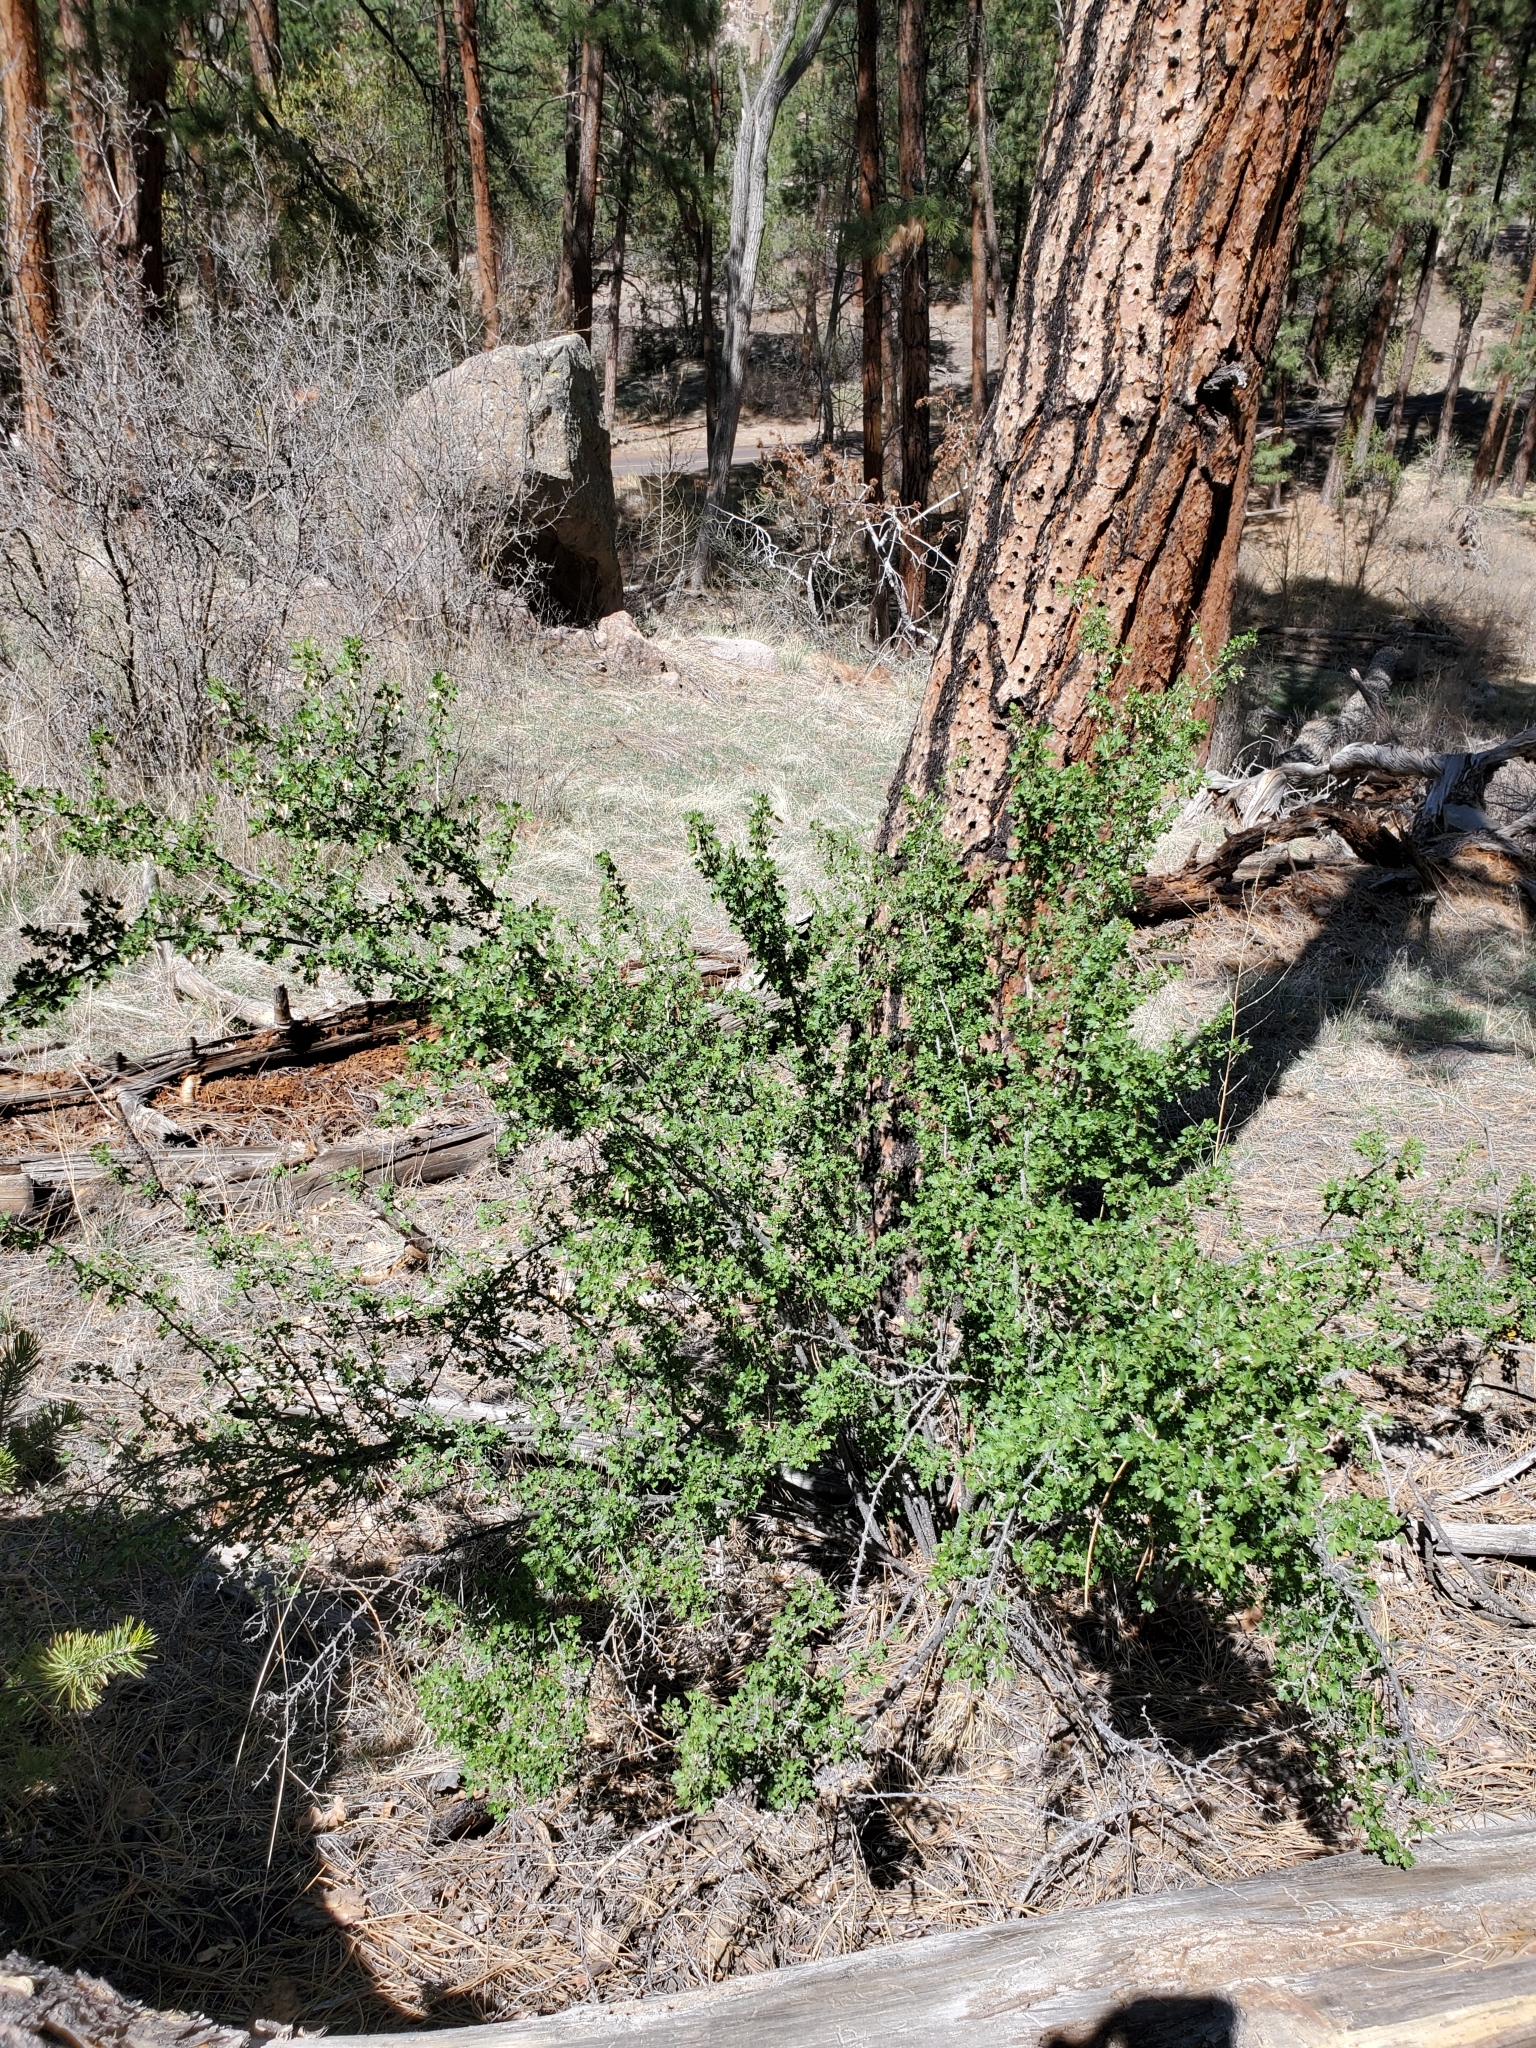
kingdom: Plantae
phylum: Tracheophyta
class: Magnoliopsida
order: Saxifragales
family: Grossulariaceae
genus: Ribes
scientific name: Ribes leptanthum
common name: Trumpet gooseberry
